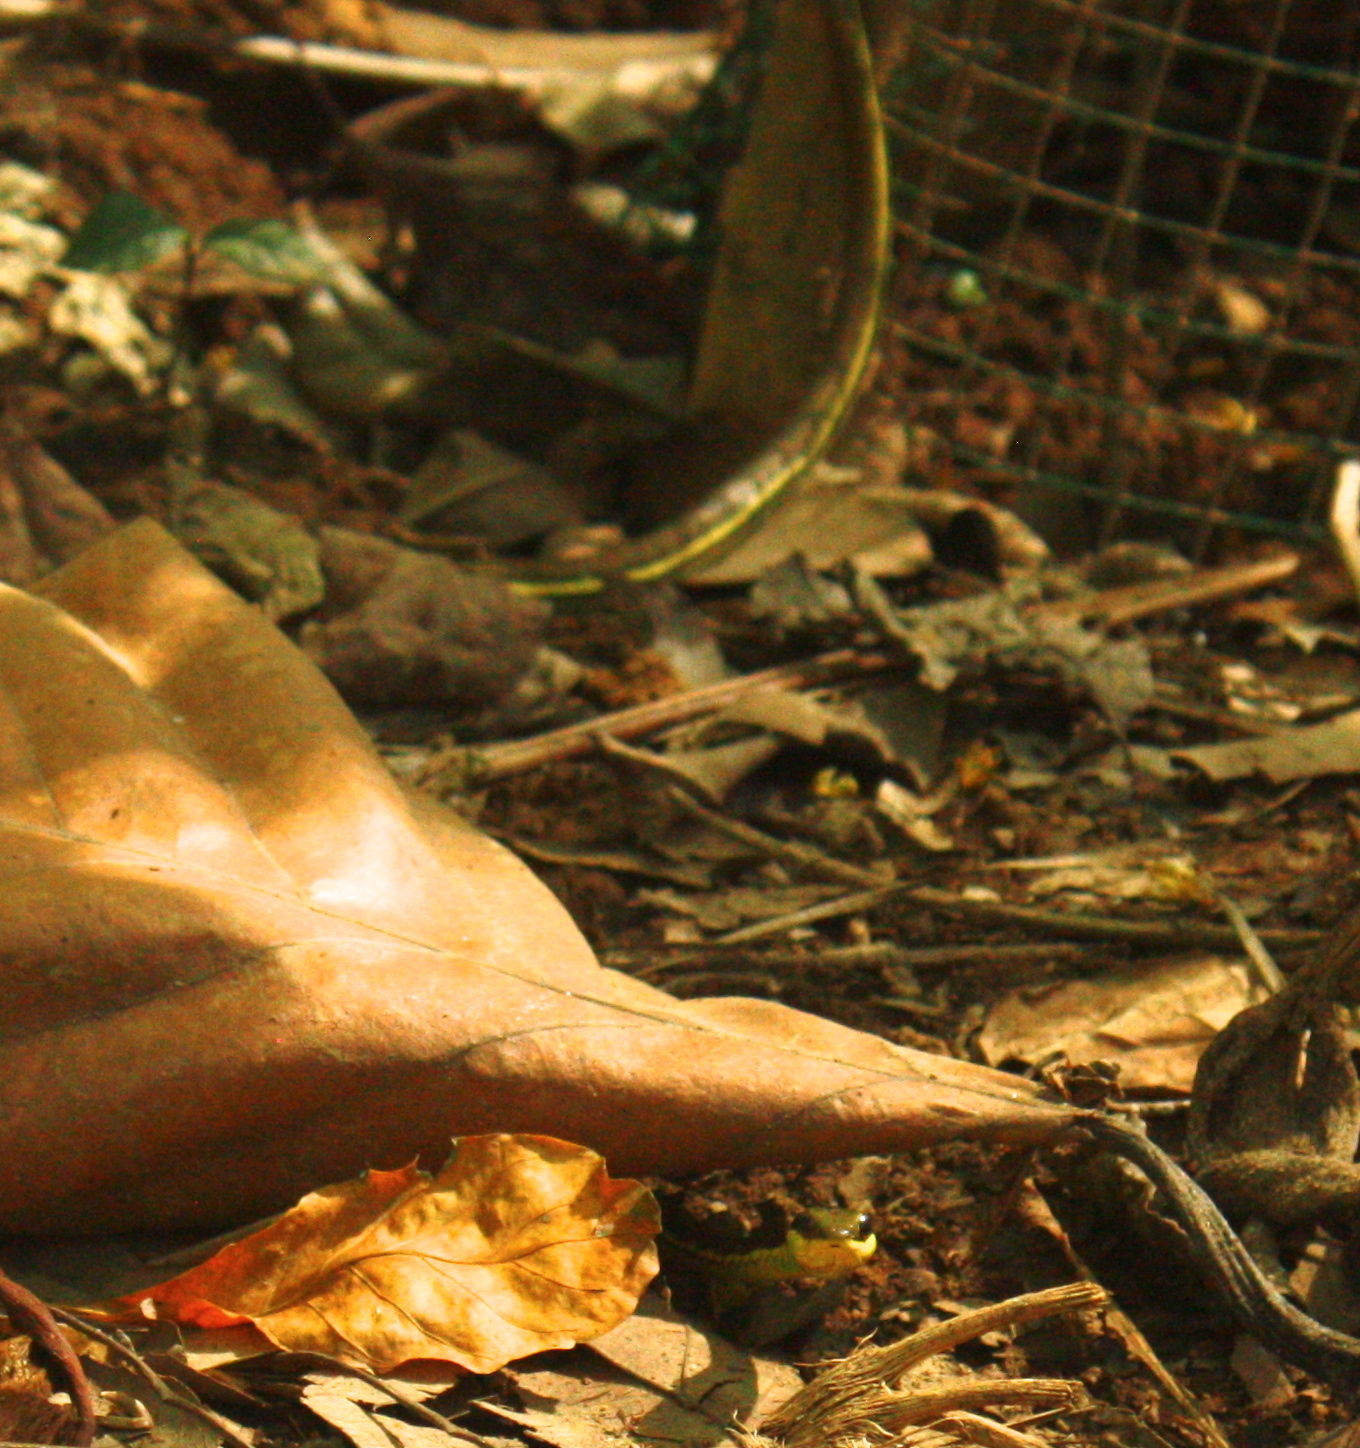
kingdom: Animalia
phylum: Chordata
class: Squamata
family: Colubridae
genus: Dendrelaphis
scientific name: Dendrelaphis pictus
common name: Indonesian bronze-back
